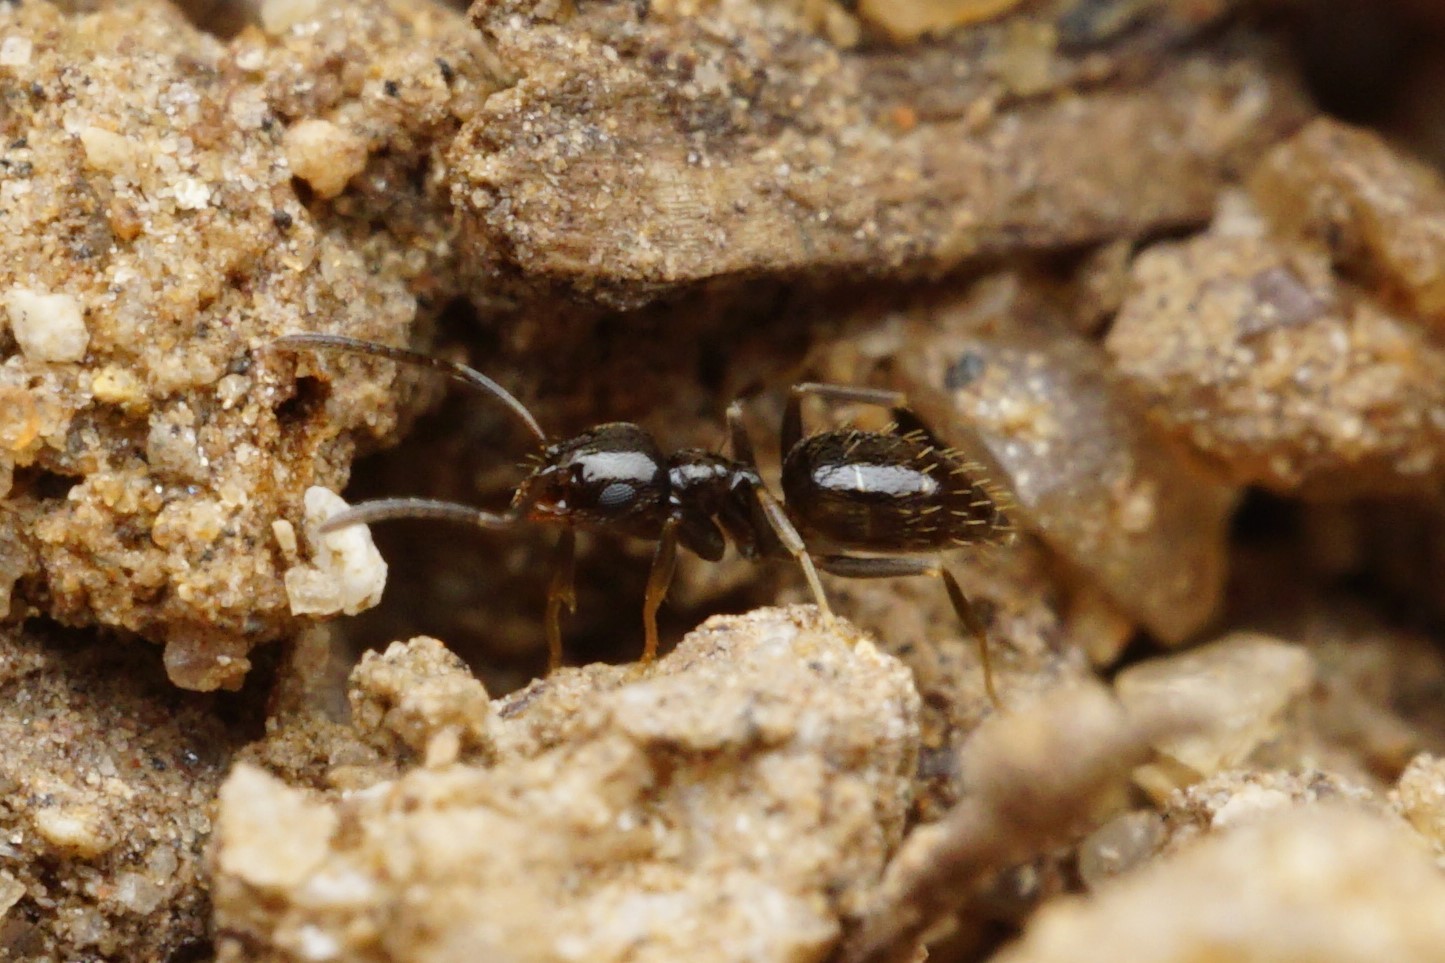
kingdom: Animalia
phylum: Arthropoda
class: Insecta
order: Hymenoptera
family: Formicidae
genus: Brachymyrmex
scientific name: Brachymyrmex patagonicus
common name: Dark rover ant
